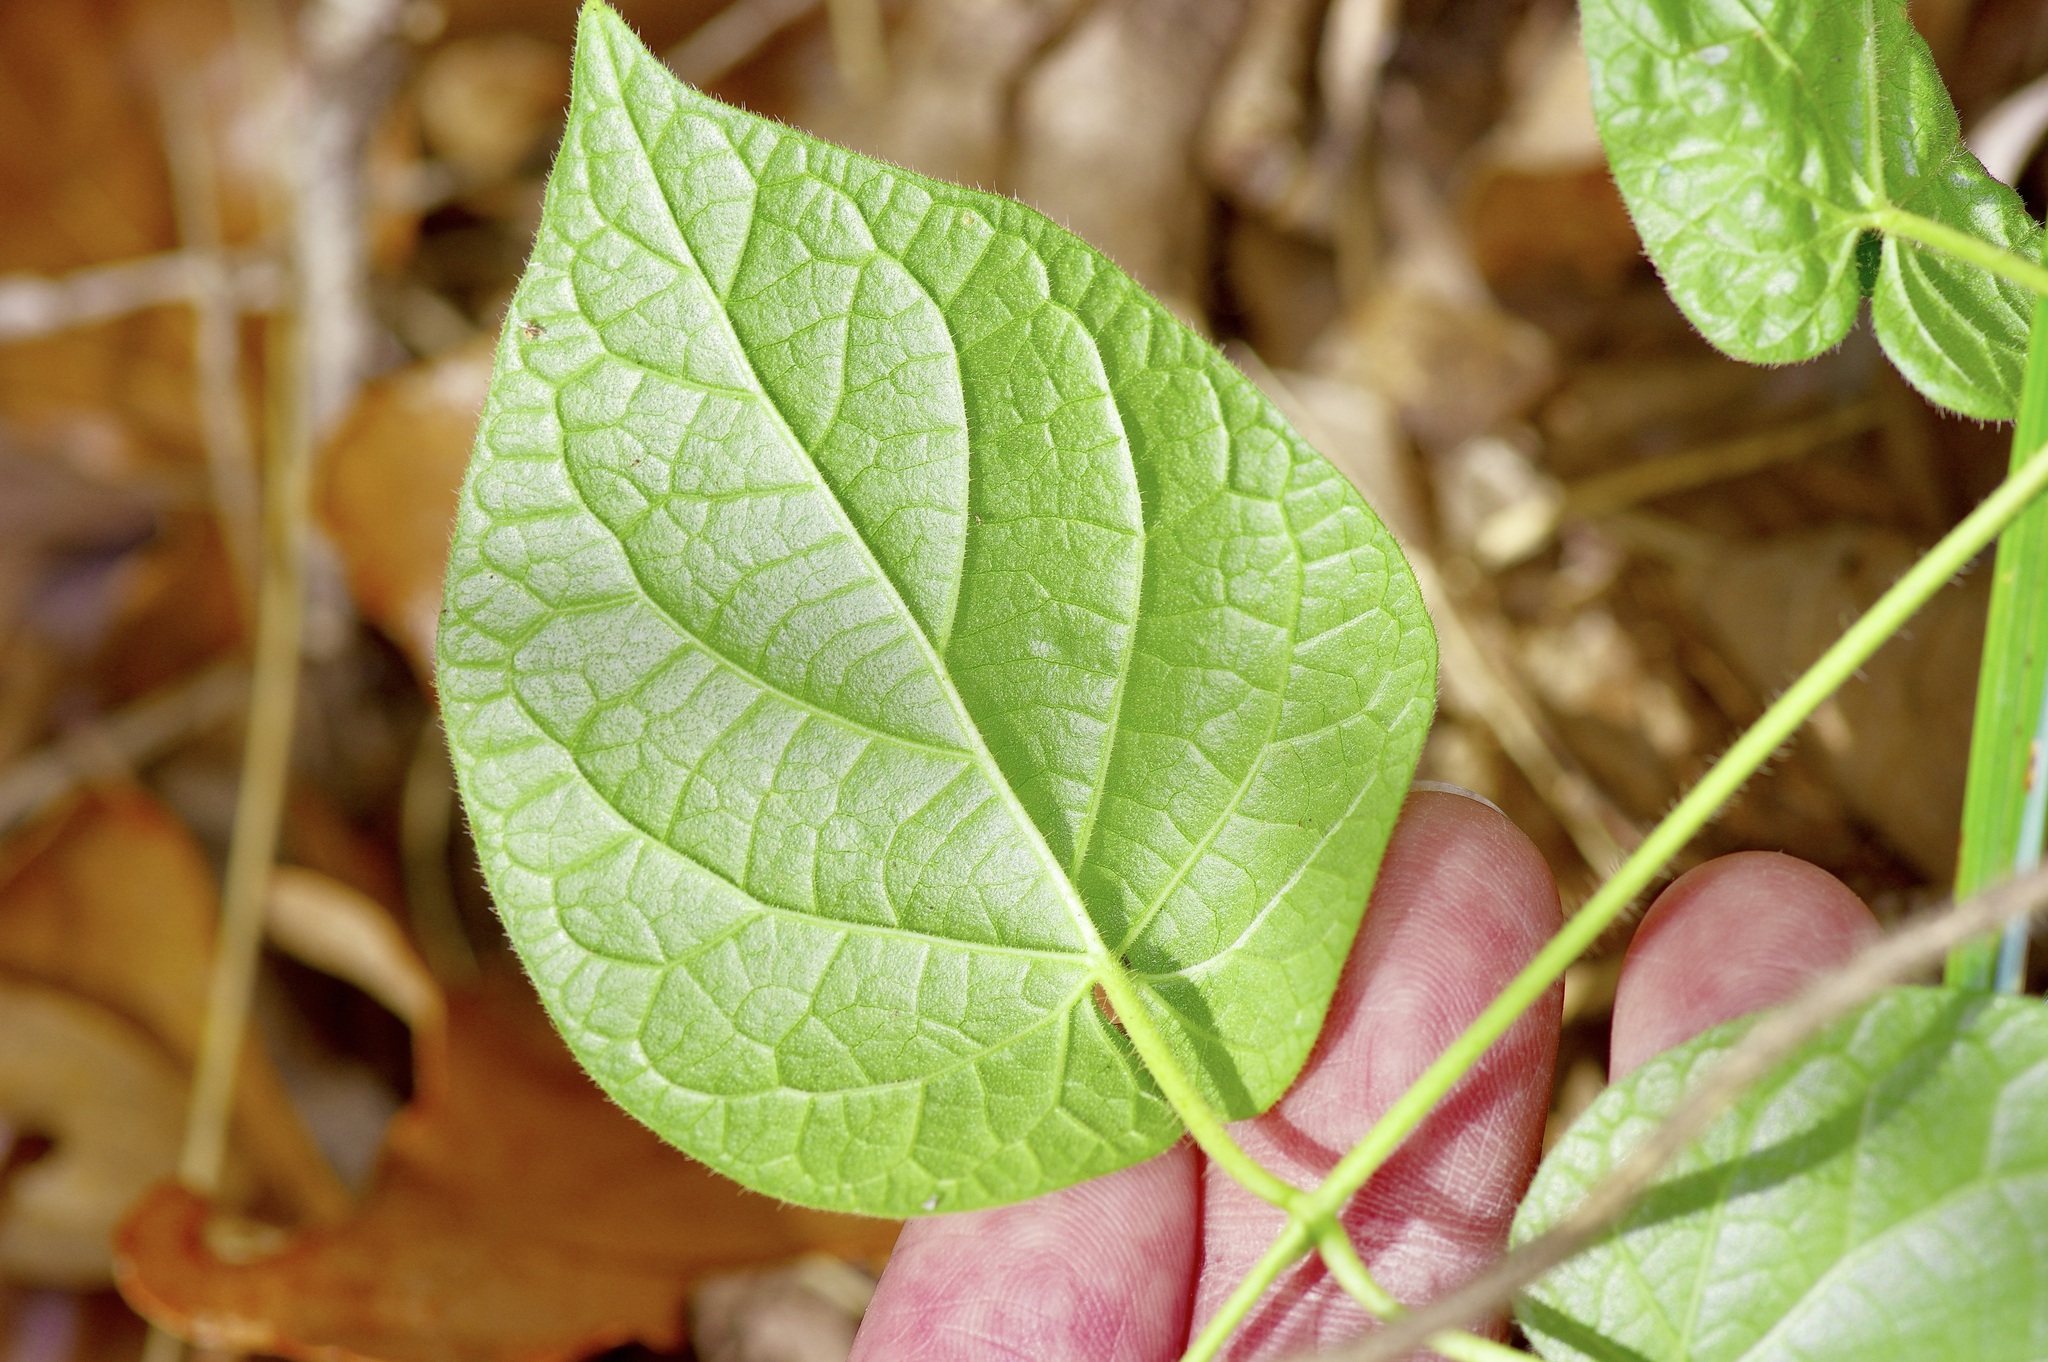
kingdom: Plantae
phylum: Tracheophyta
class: Magnoliopsida
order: Gentianales
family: Apocynaceae
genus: Matelea
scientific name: Matelea hirtelliflora
